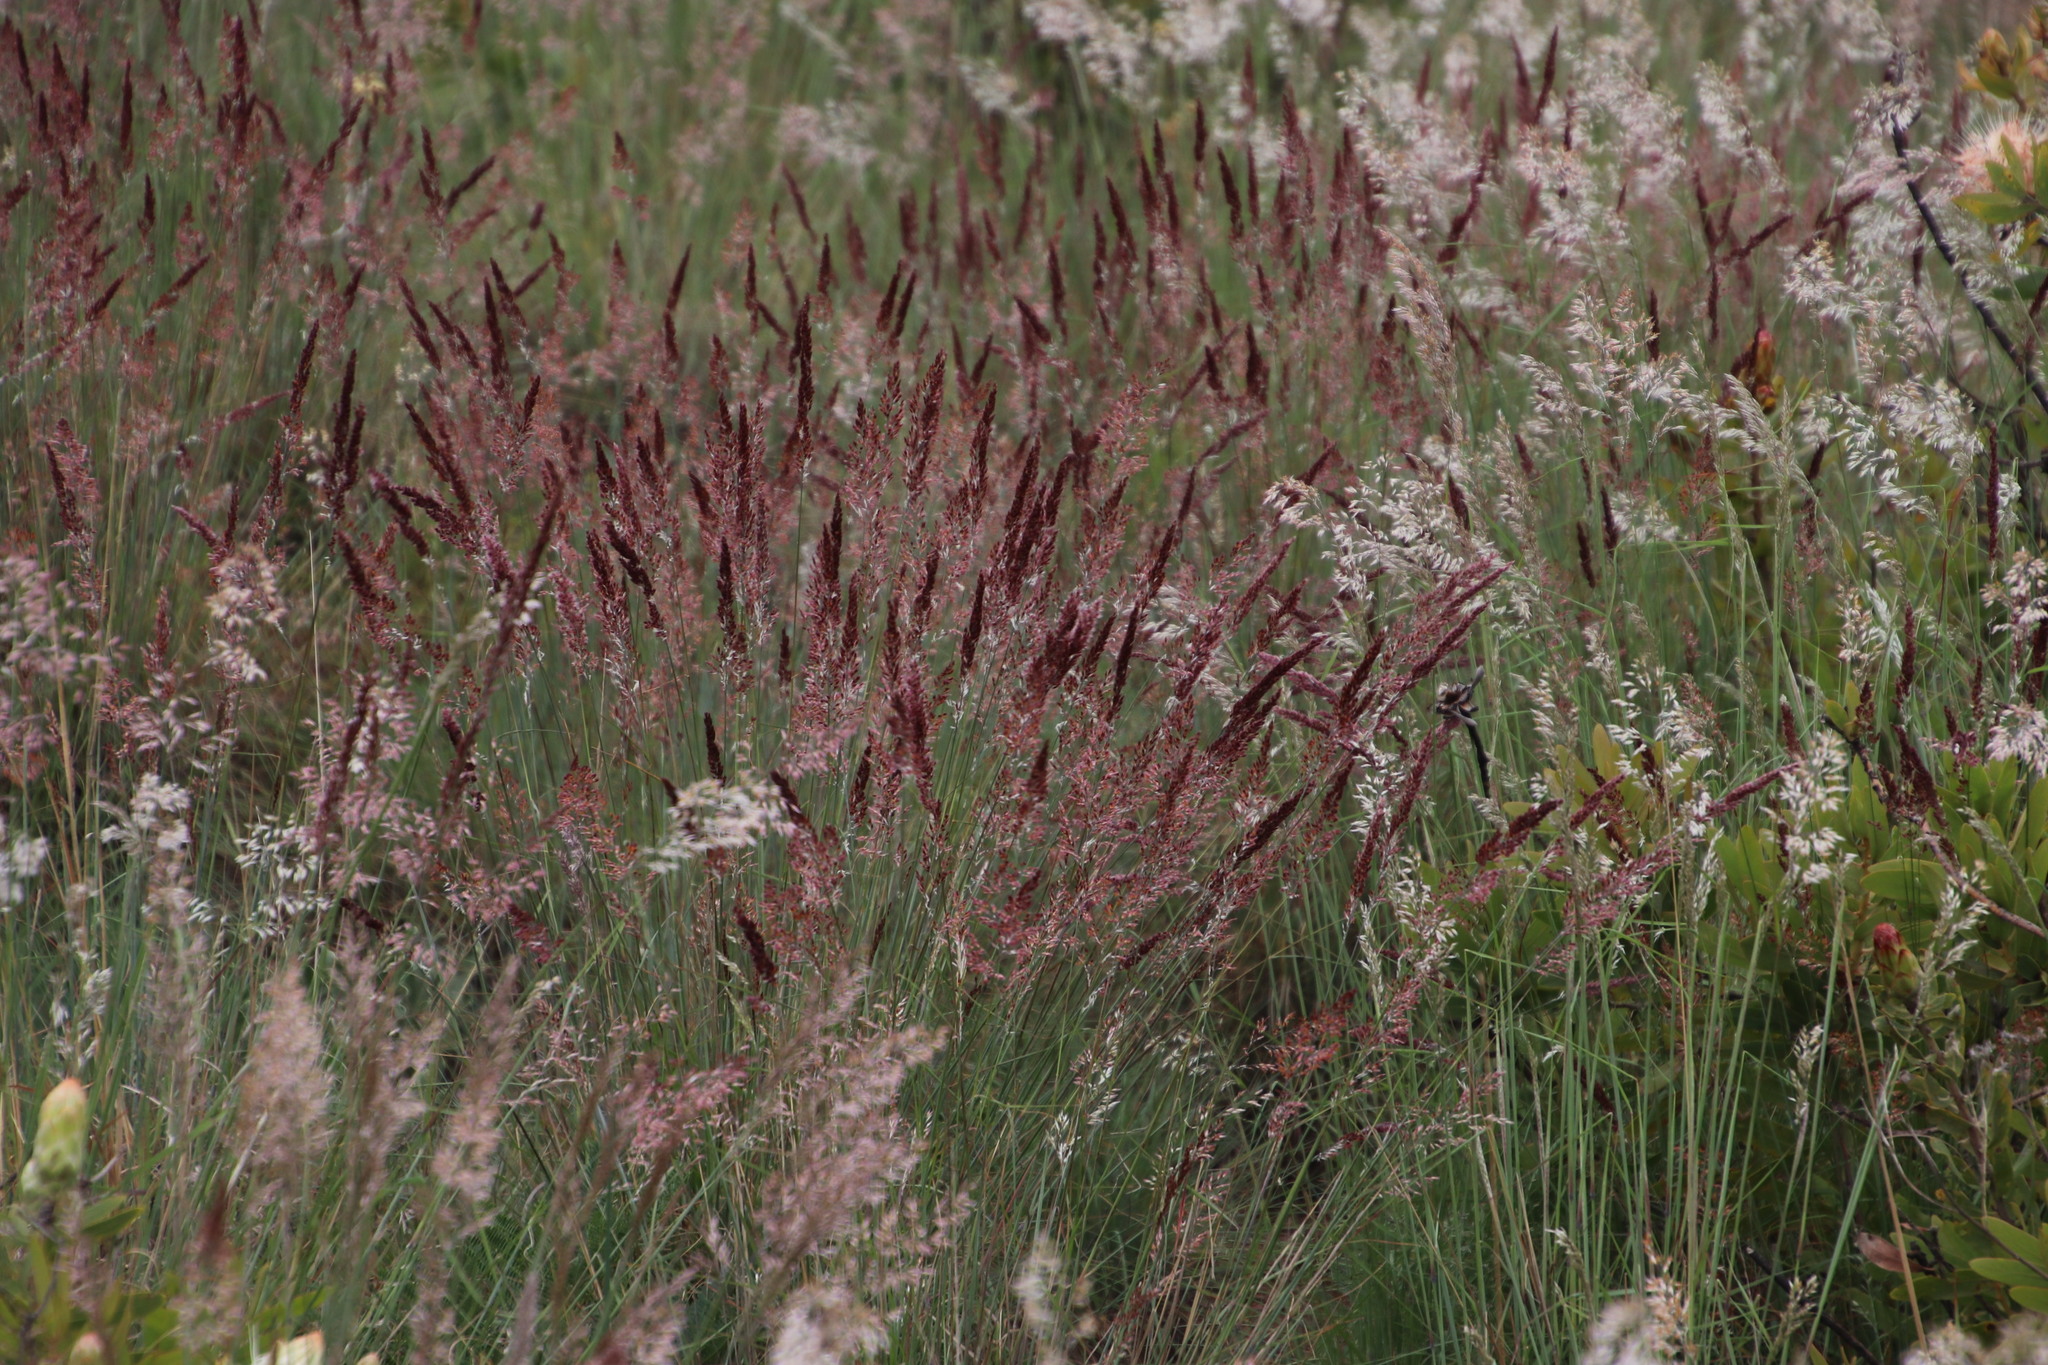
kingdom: Plantae
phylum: Tracheophyta
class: Liliopsida
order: Poales
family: Poaceae
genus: Melinis
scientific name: Melinis nerviglumis
